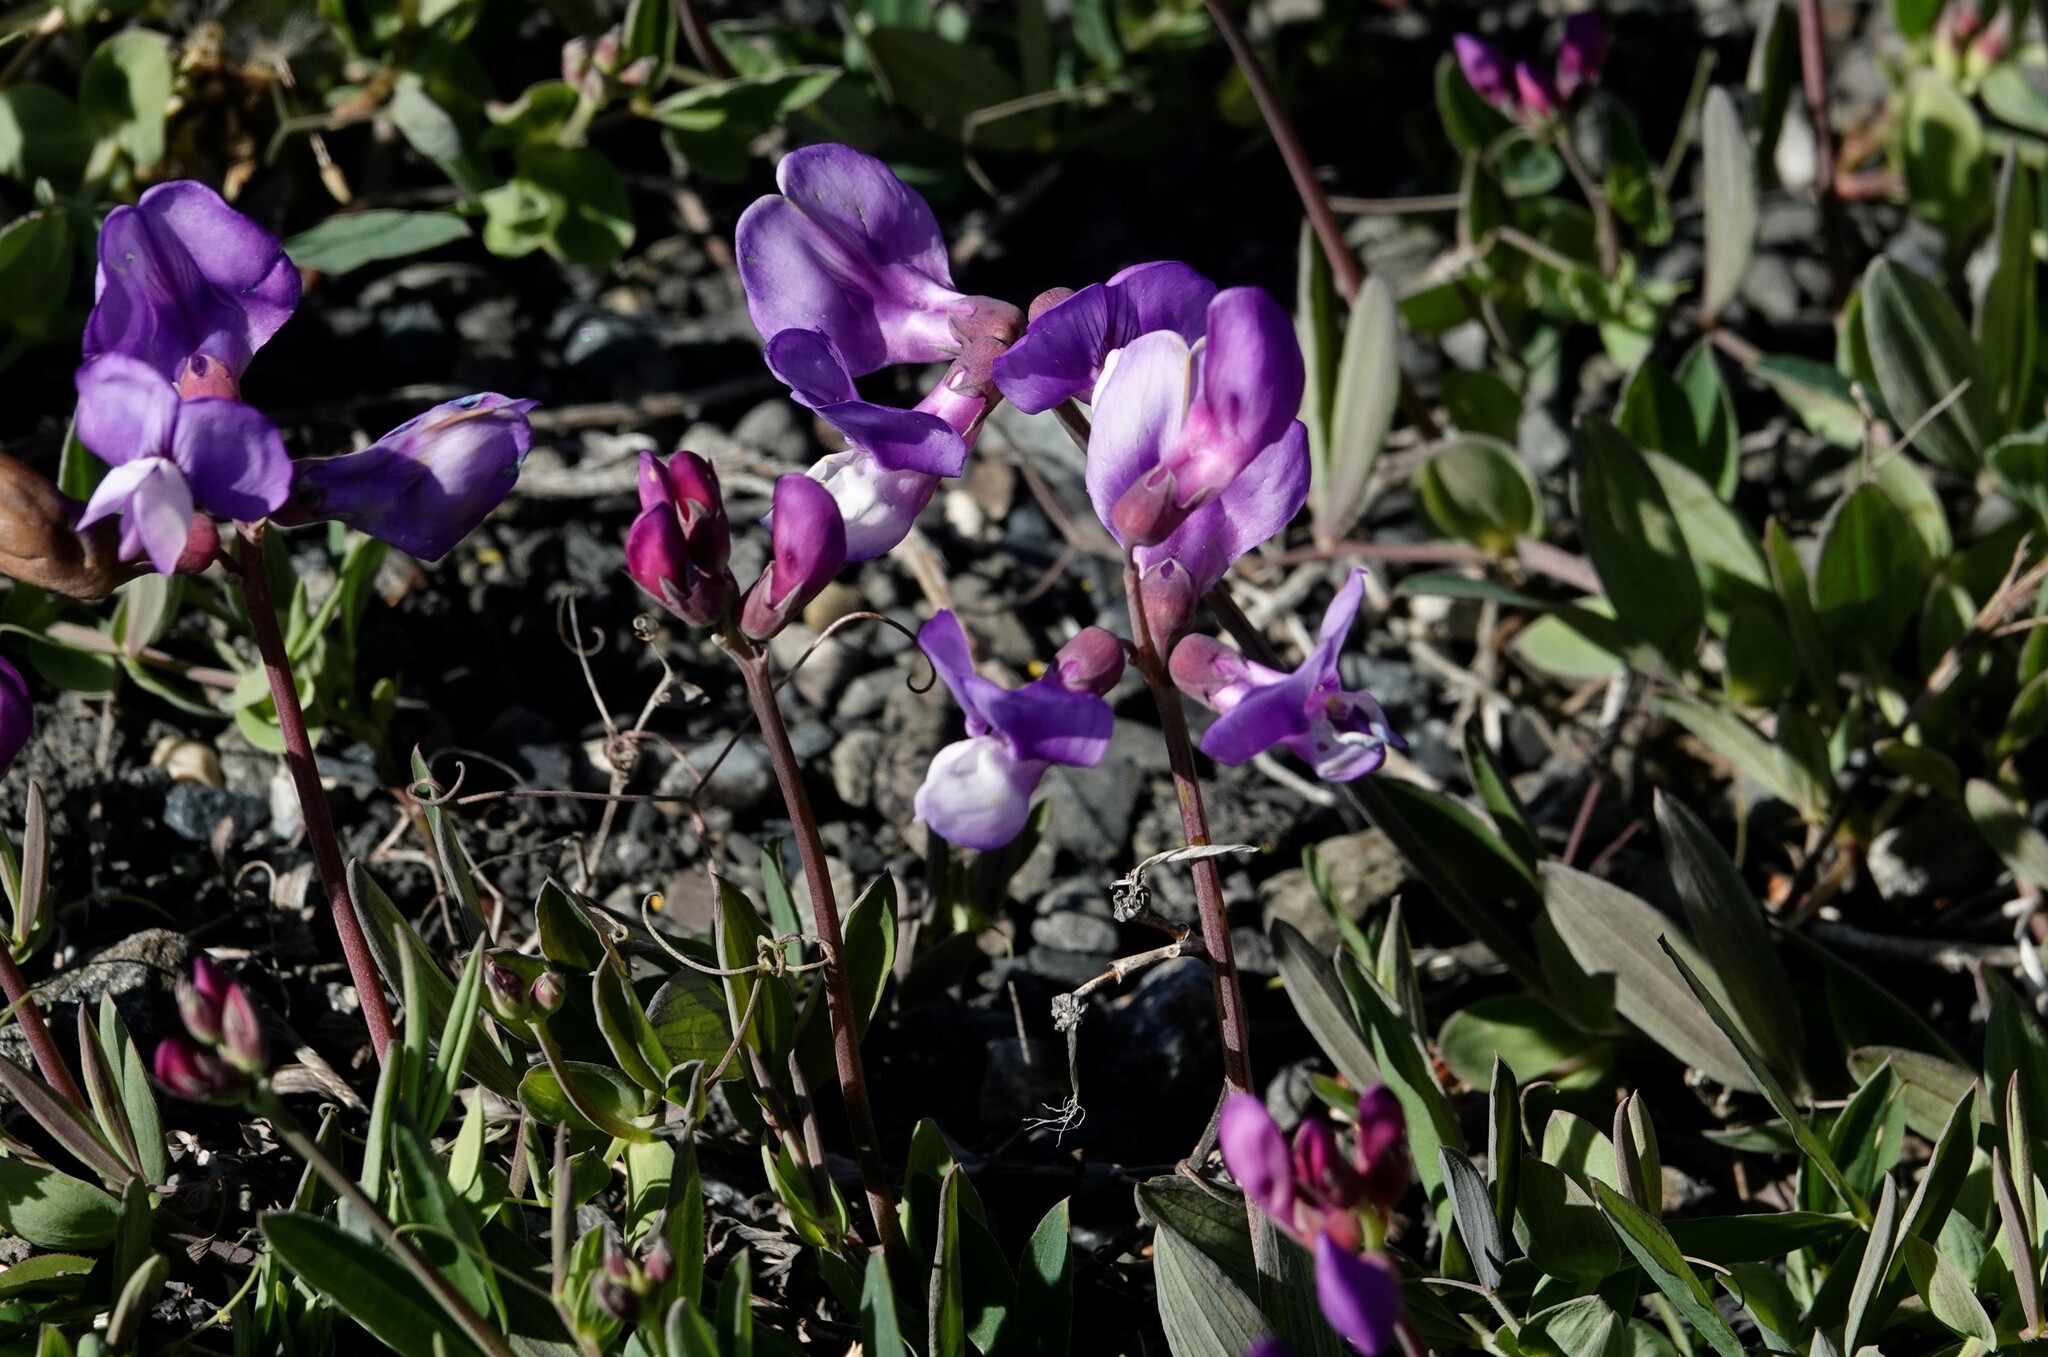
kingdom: Plantae
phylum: Tracheophyta
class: Magnoliopsida
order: Fabales
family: Fabaceae
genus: Lathyrus
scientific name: Lathyrus magellanicus
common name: Lord anson's pea
